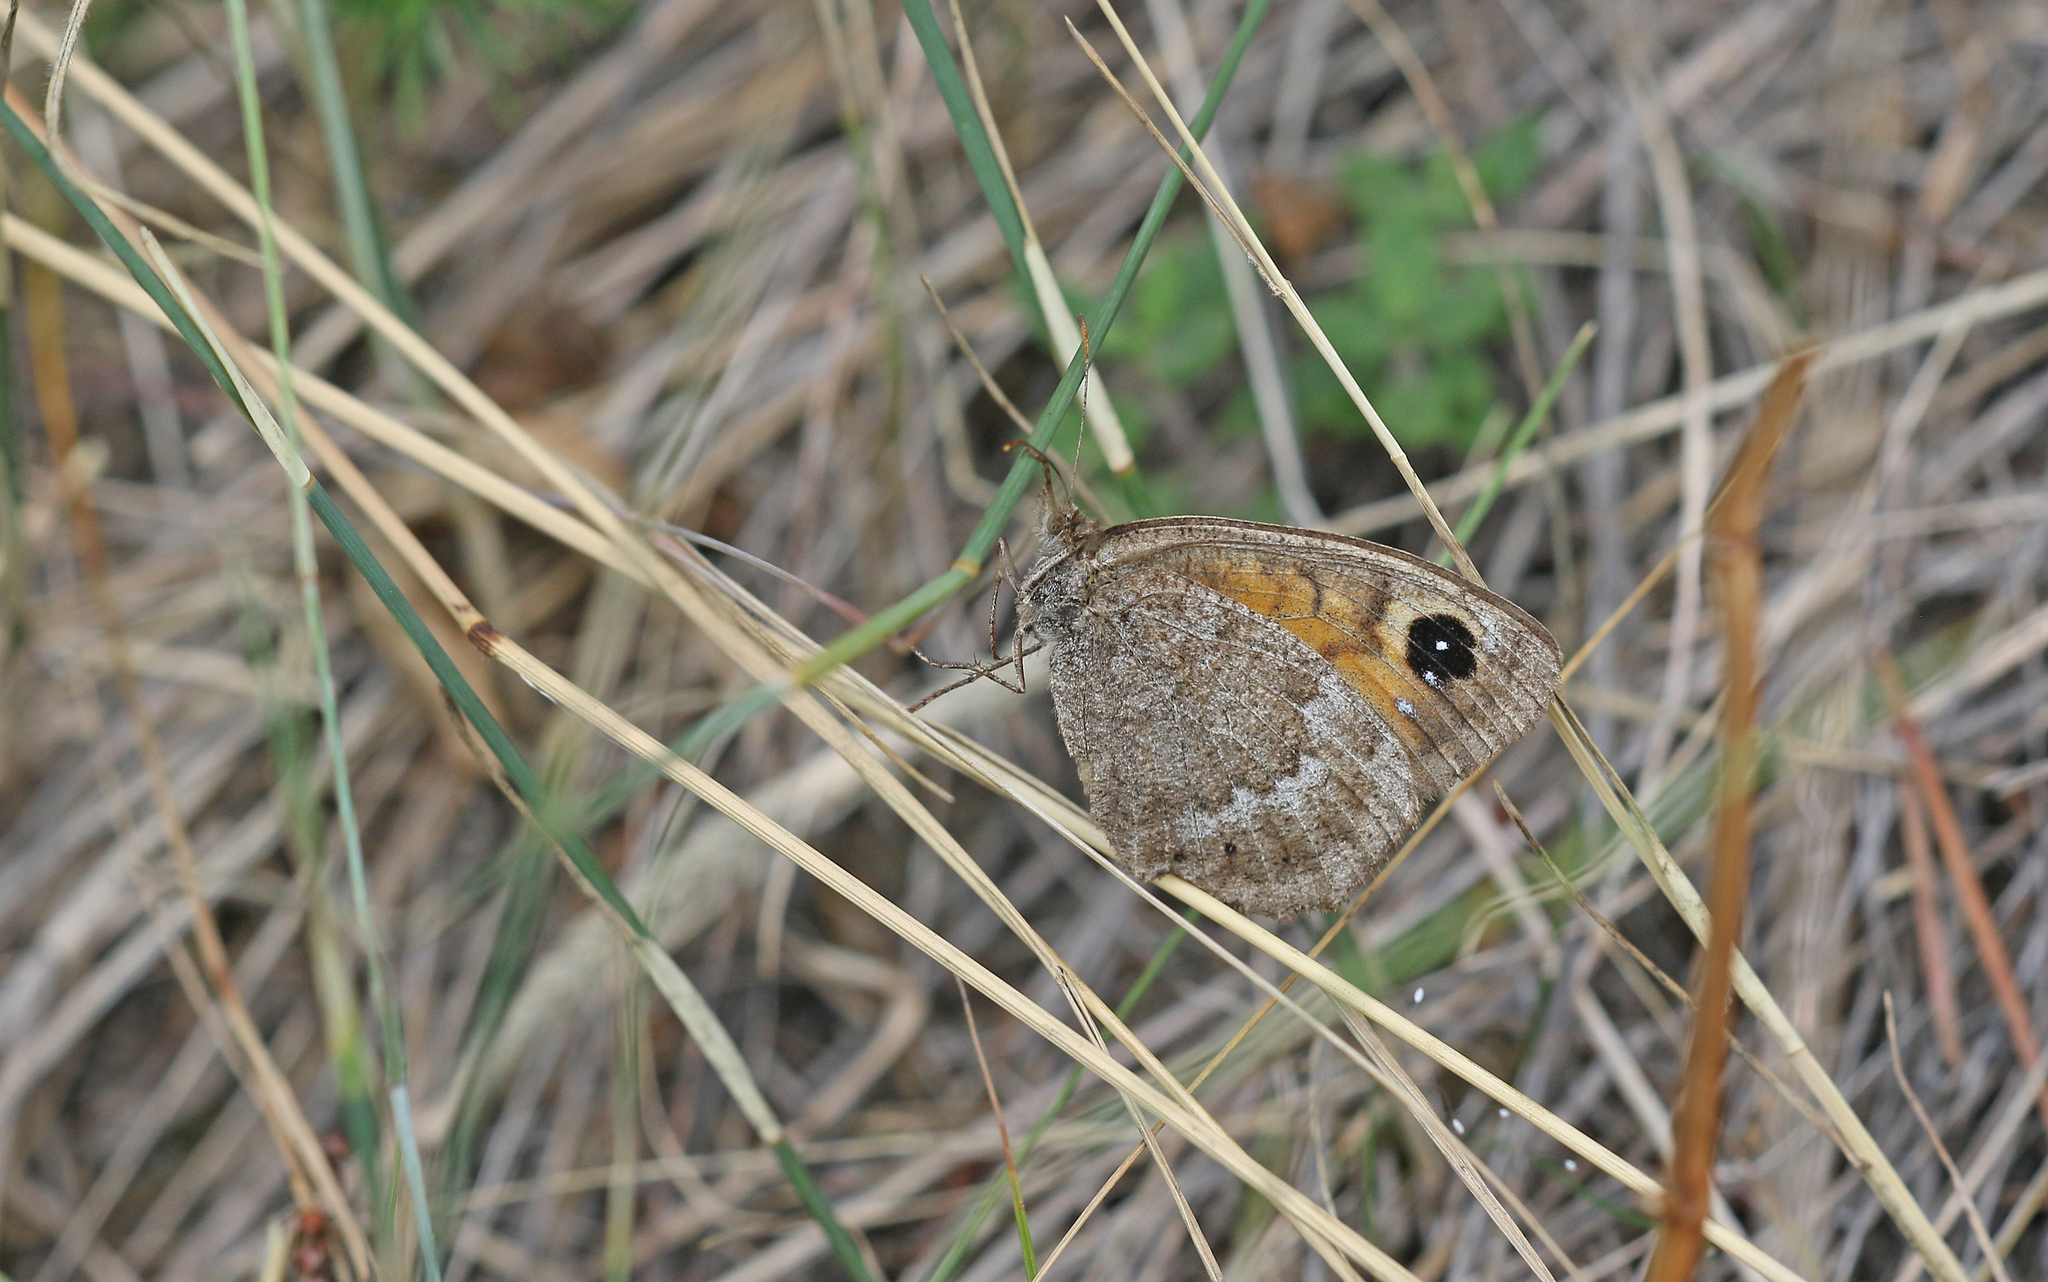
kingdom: Animalia
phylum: Arthropoda
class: Insecta
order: Lepidoptera
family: Nymphalidae
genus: Satyrus
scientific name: Satyrus ferula
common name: Great sooty satyr
